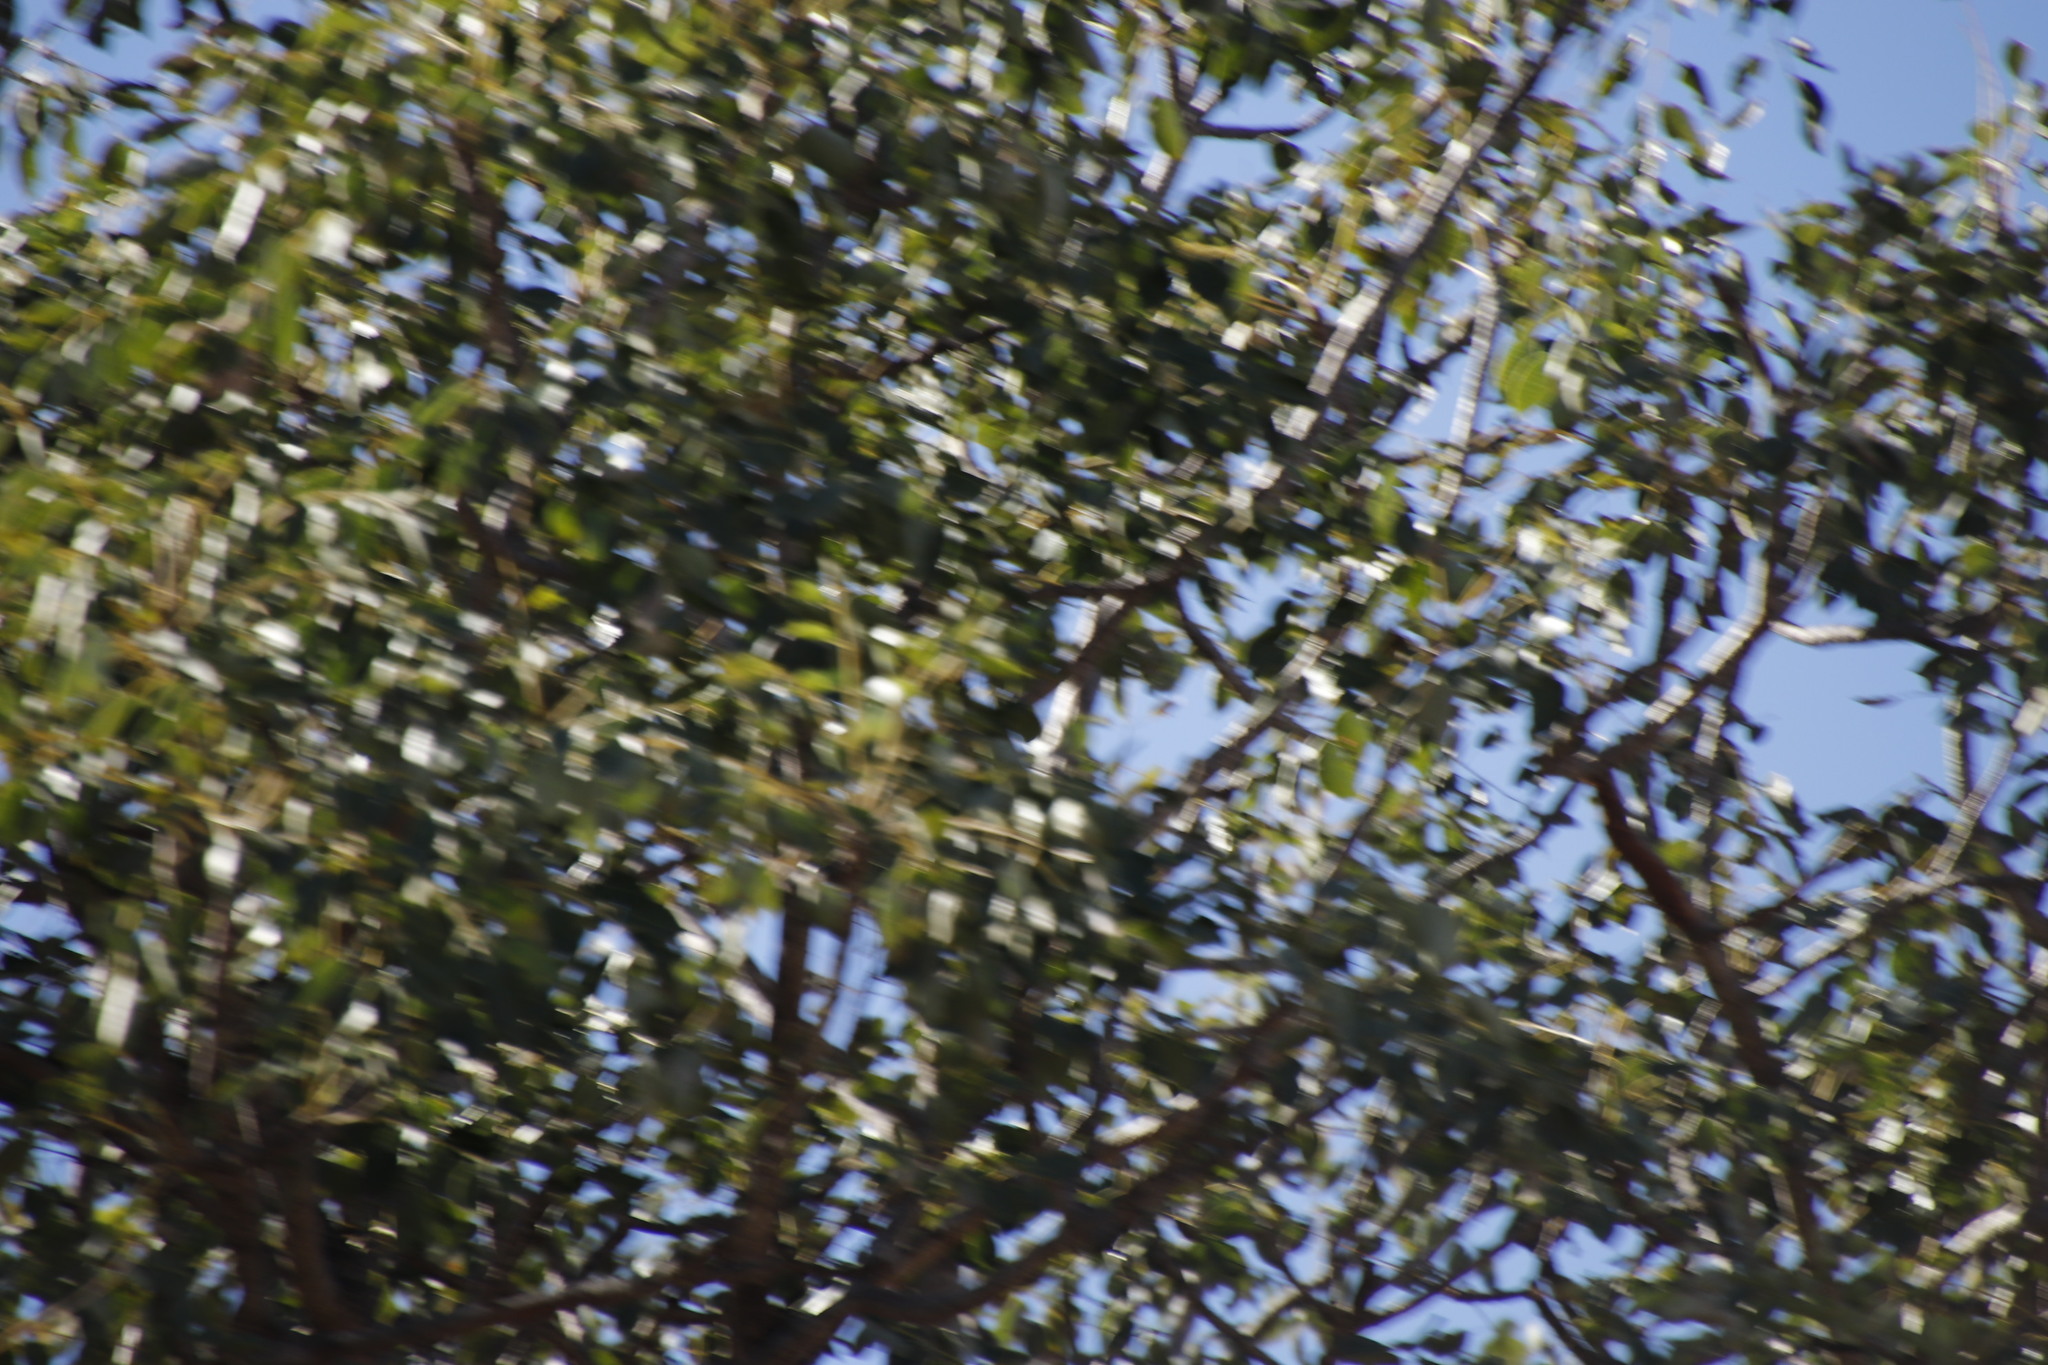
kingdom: Plantae
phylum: Tracheophyta
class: Magnoliopsida
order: Sapindales
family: Anacardiaceae
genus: Sclerocarya
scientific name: Sclerocarya birrea
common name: Marula
